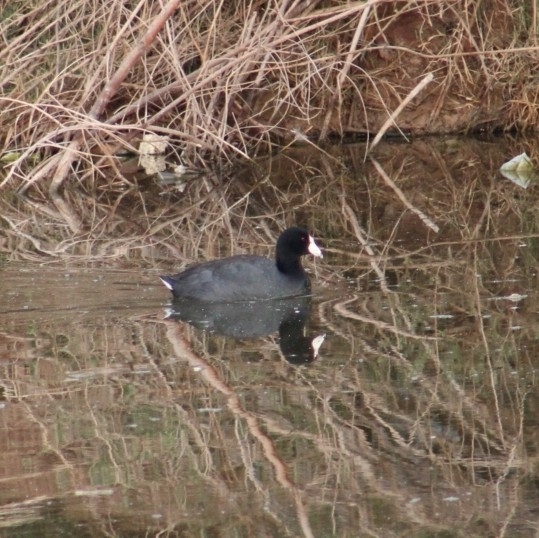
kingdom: Animalia
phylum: Chordata
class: Aves
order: Gruiformes
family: Rallidae
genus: Fulica
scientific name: Fulica americana
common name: American coot
